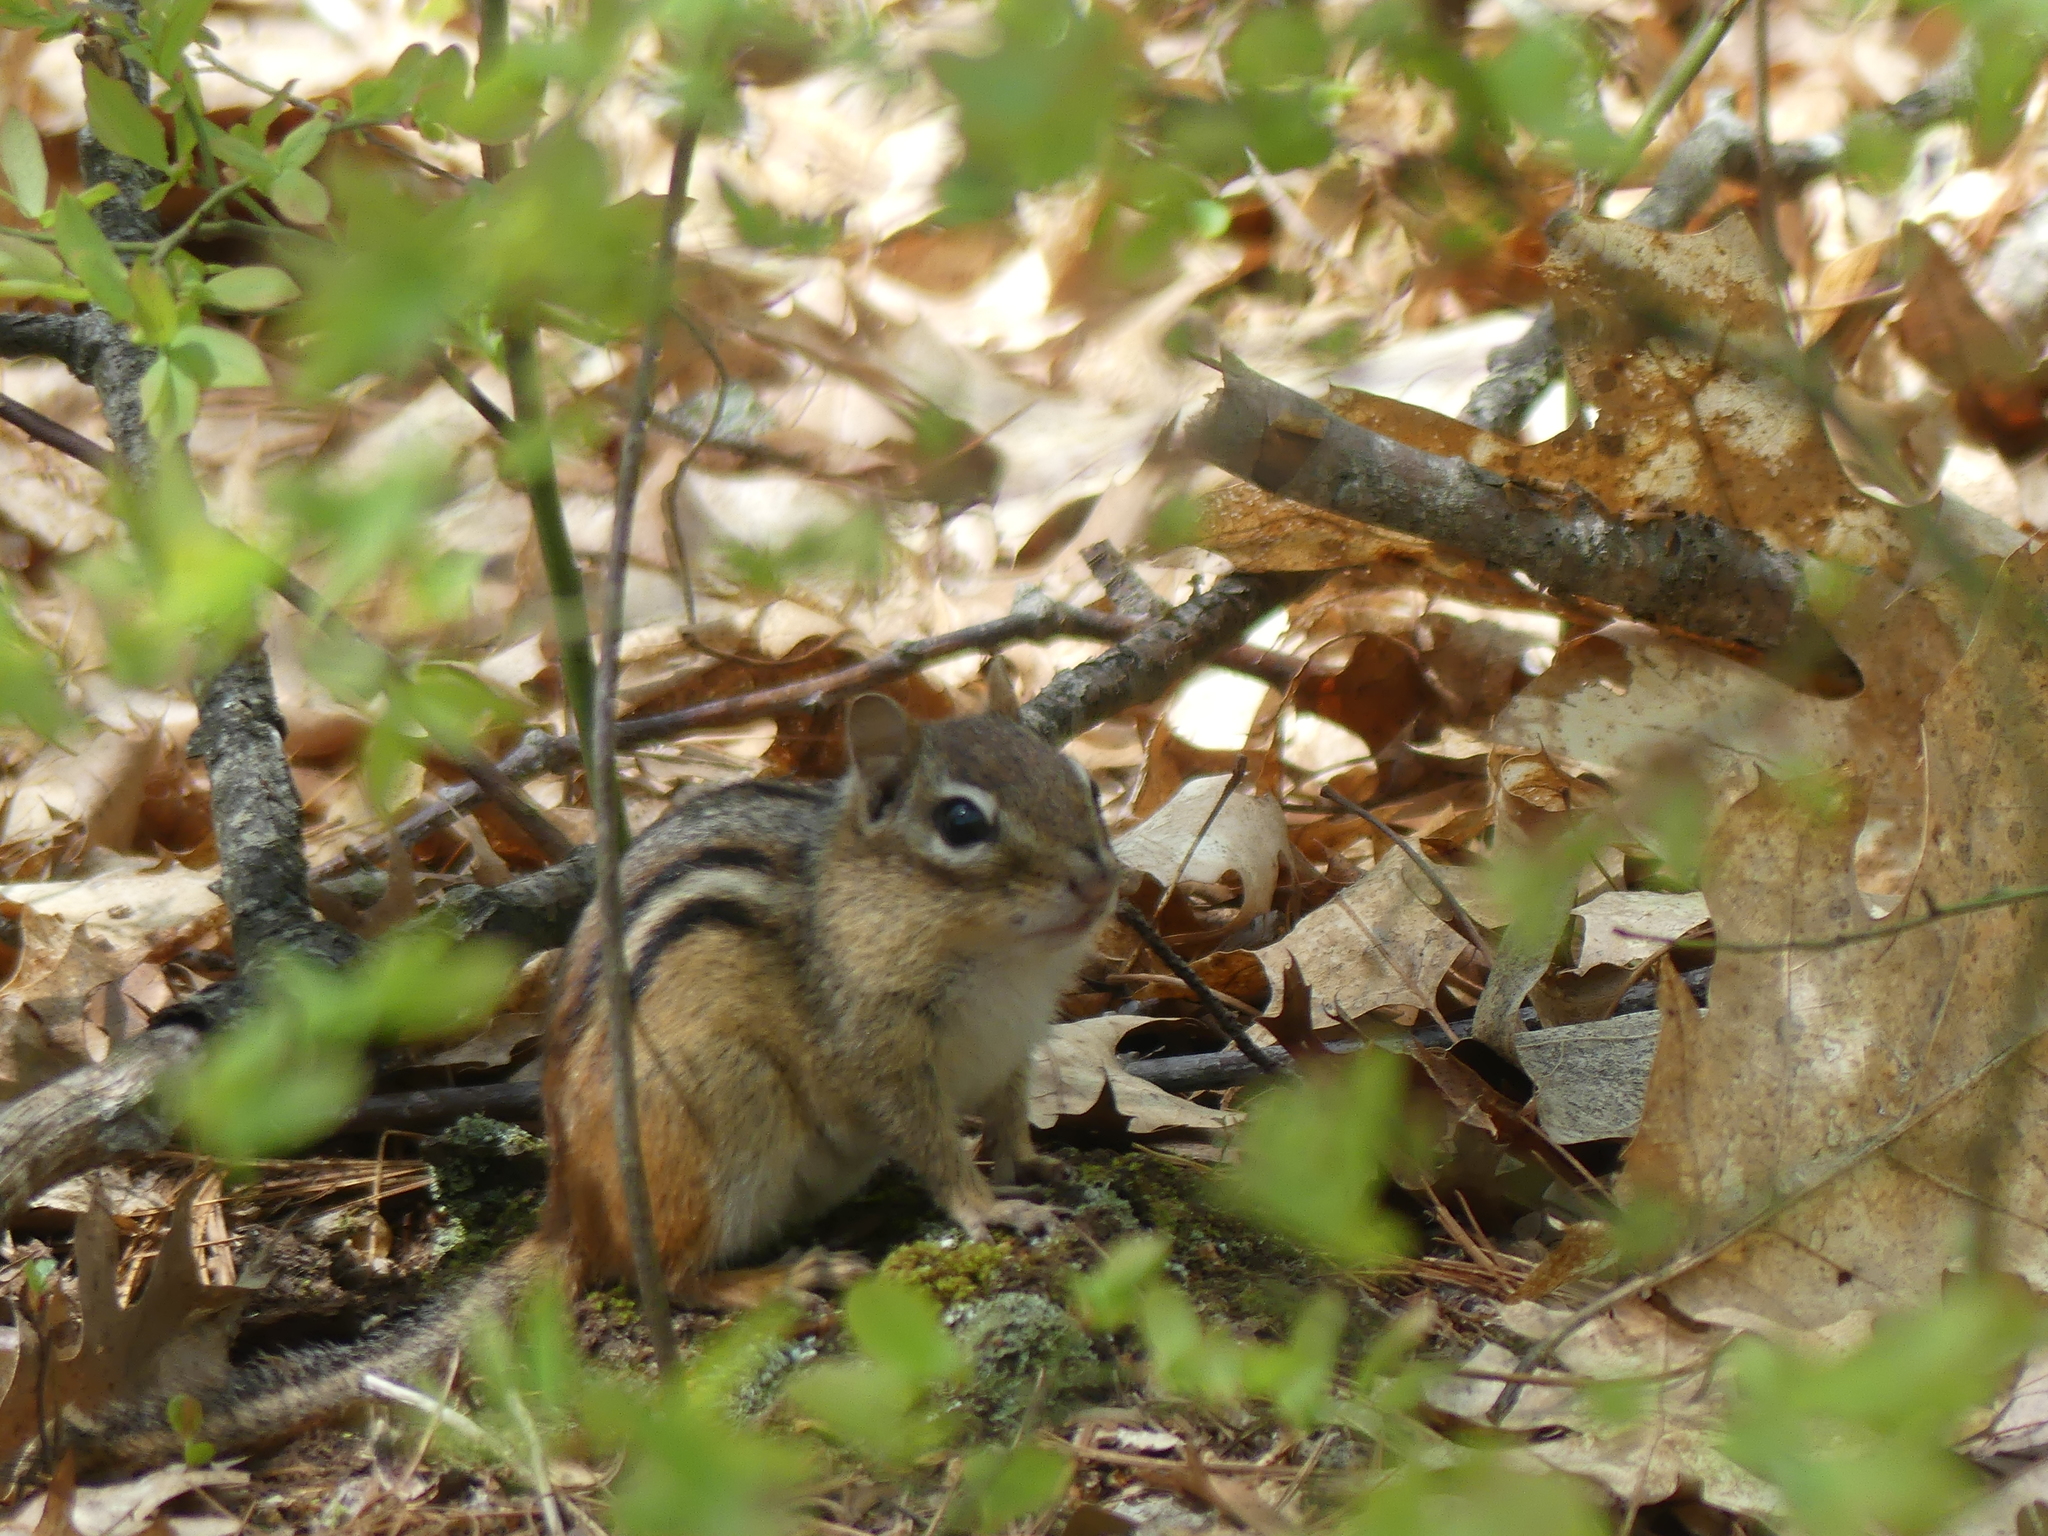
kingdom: Animalia
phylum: Chordata
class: Mammalia
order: Rodentia
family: Sciuridae
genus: Tamias
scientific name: Tamias striatus
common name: Eastern chipmunk
